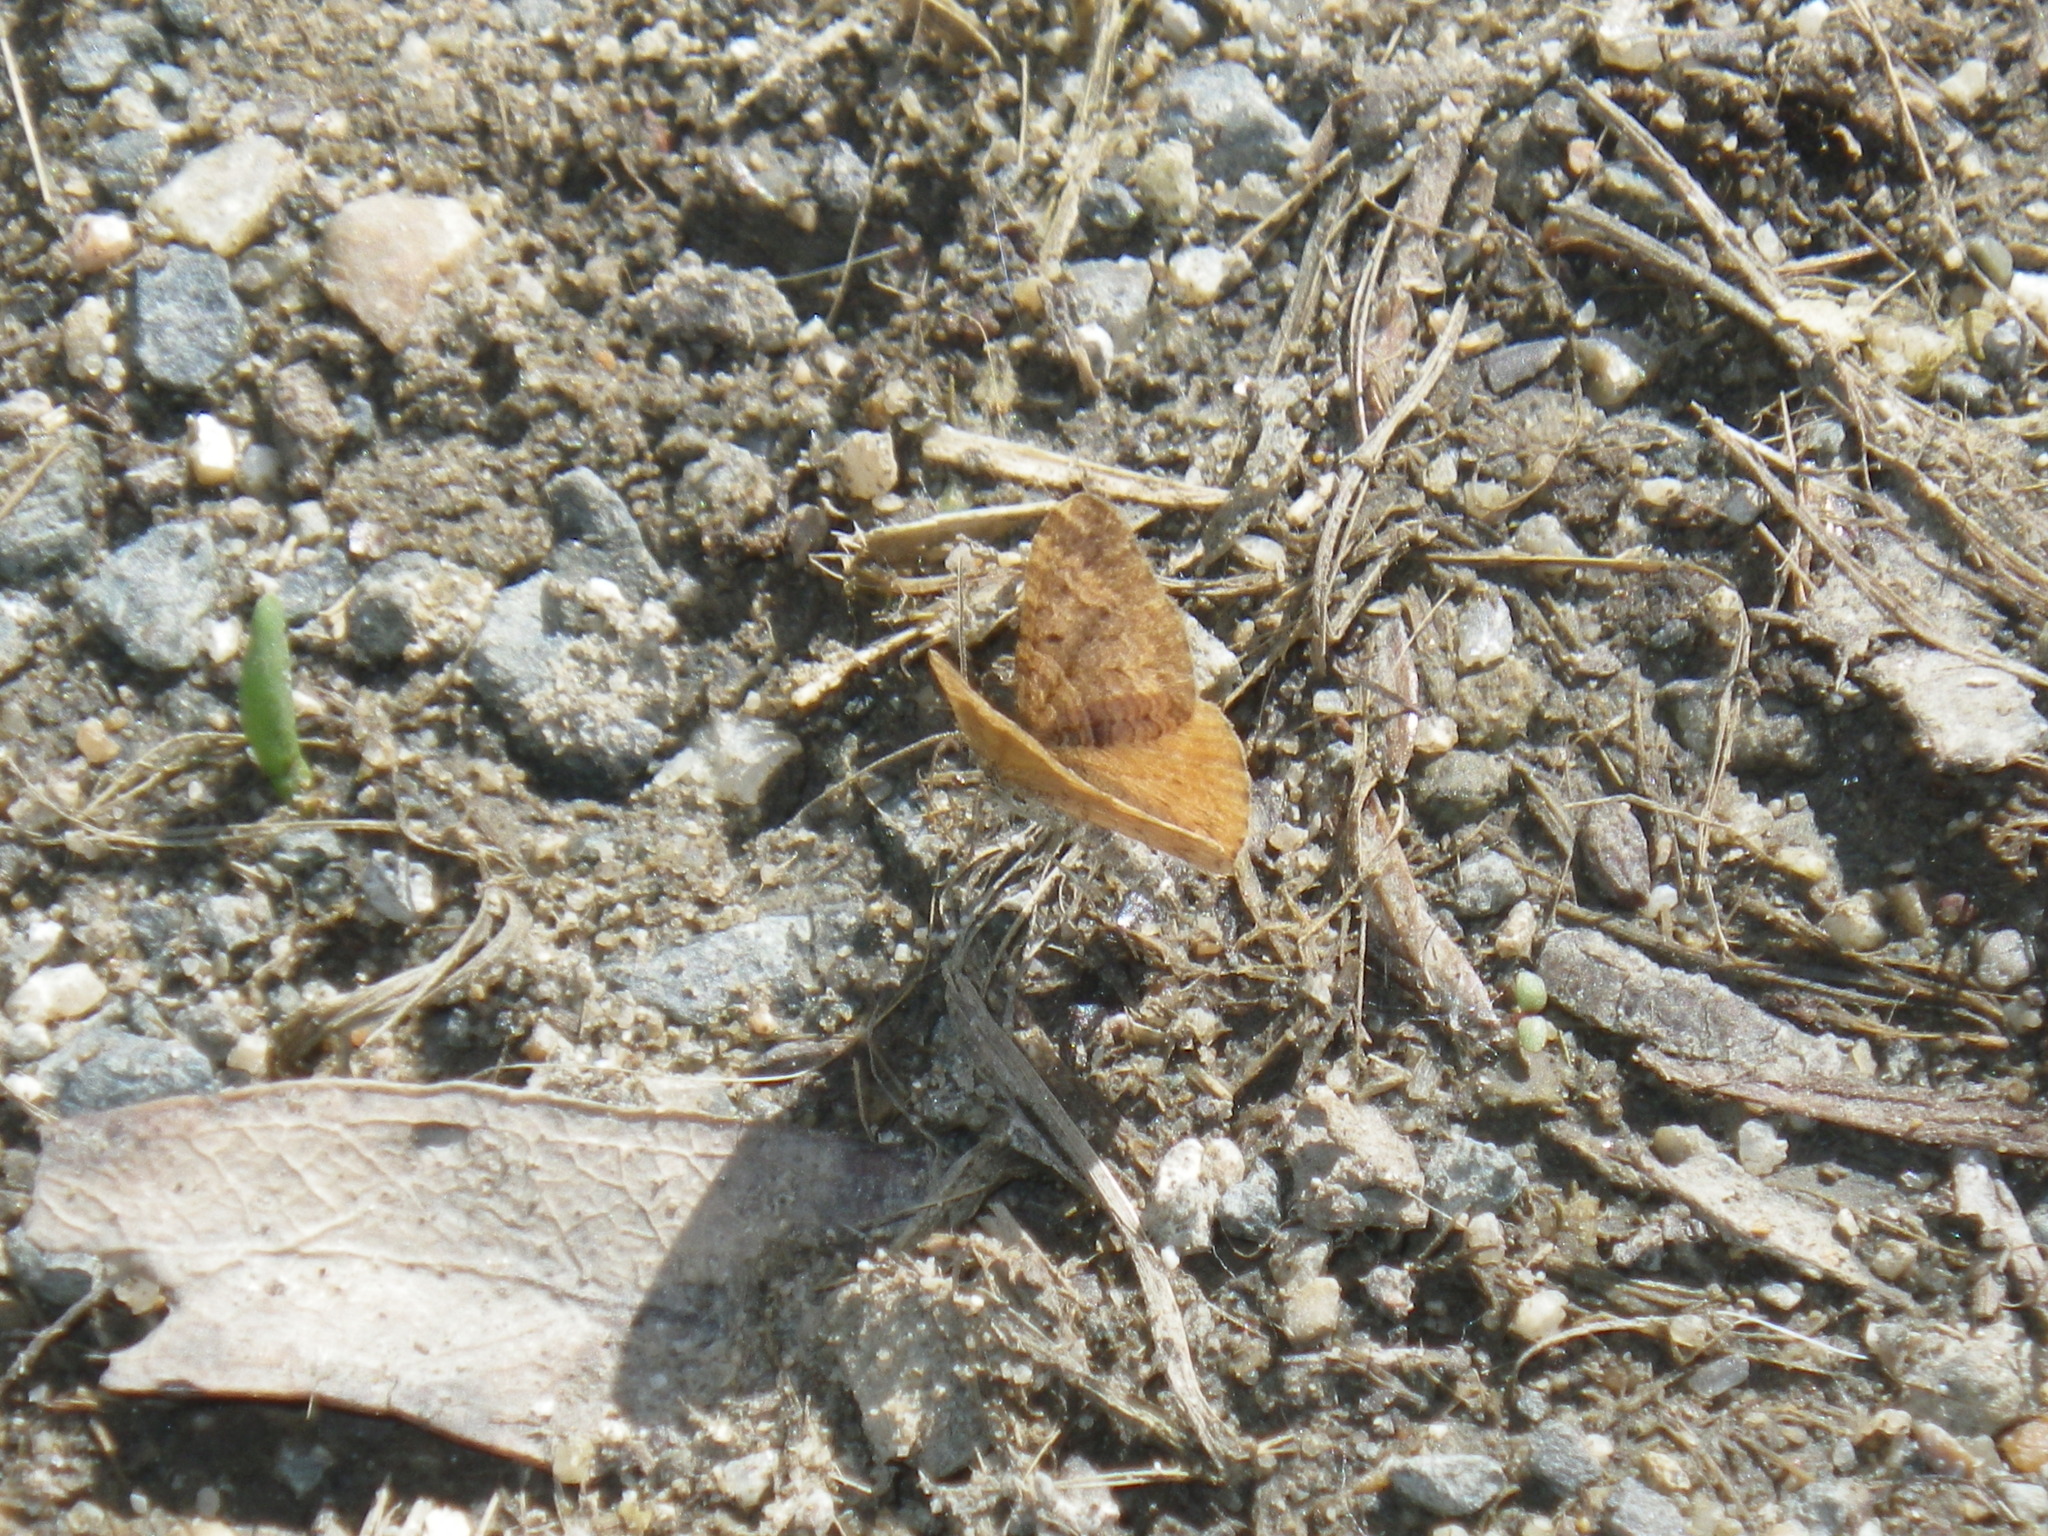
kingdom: Animalia
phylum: Arthropoda
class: Insecta
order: Lepidoptera
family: Geometridae
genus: Epirrhoe
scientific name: Epirrhoe plebeculata
